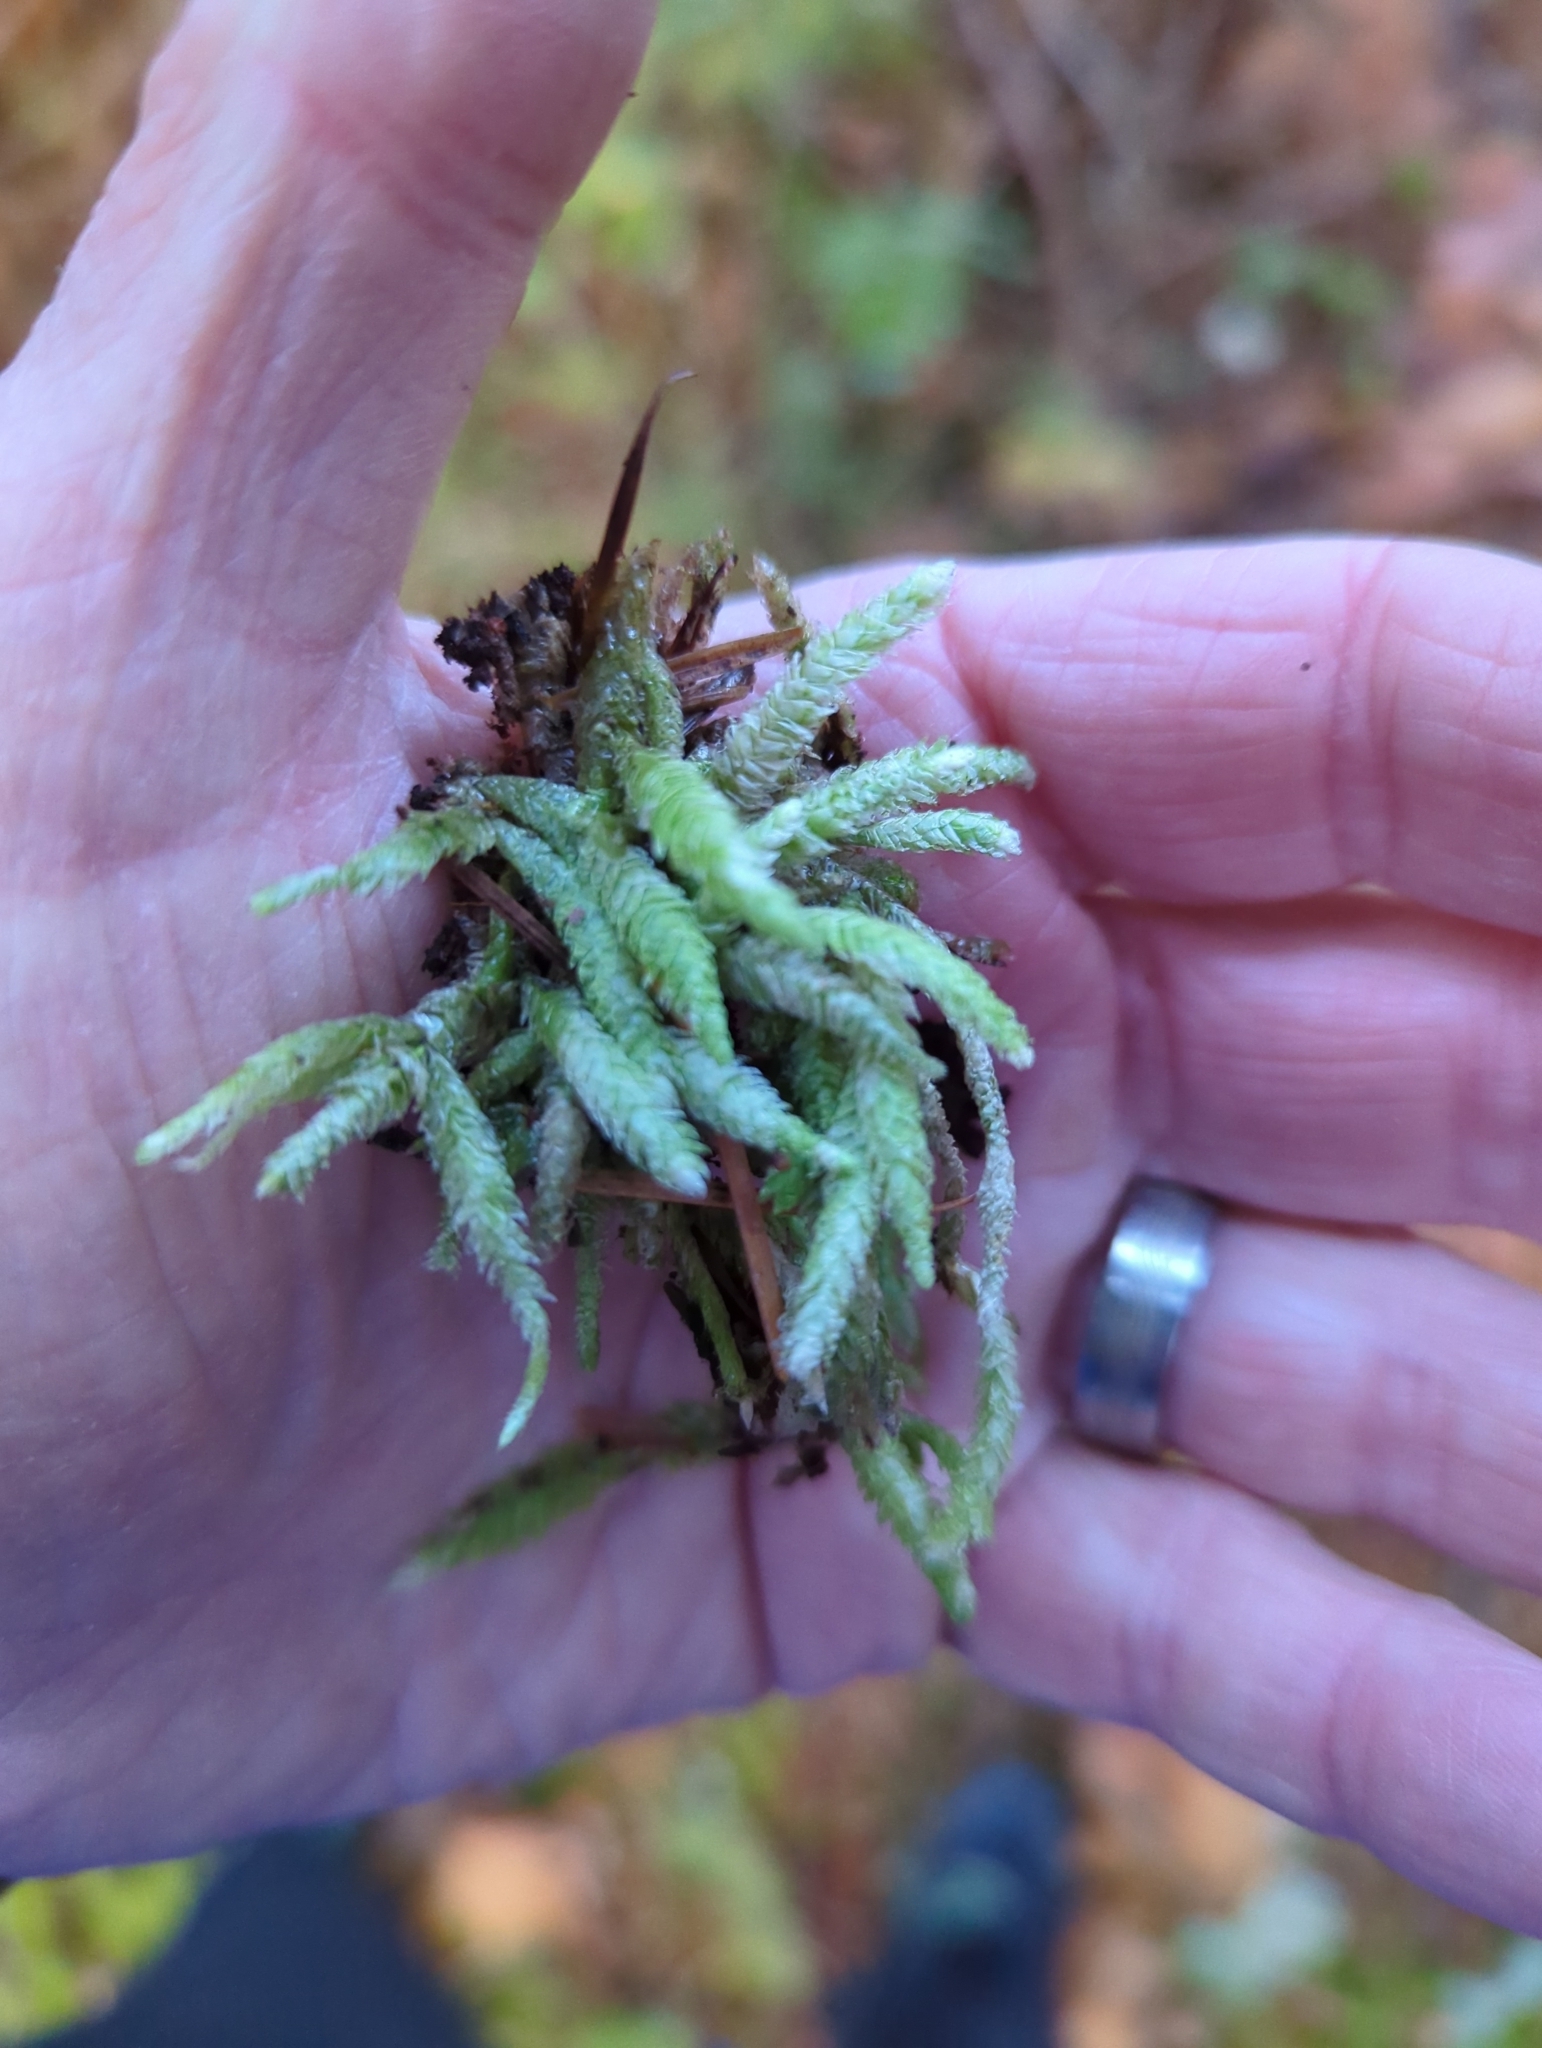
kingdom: Plantae
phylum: Bryophyta
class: Bryopsida
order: Hypnales
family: Plagiotheciaceae
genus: Plagiothecium
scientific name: Plagiothecium undulatum
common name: Waved silk-moss
